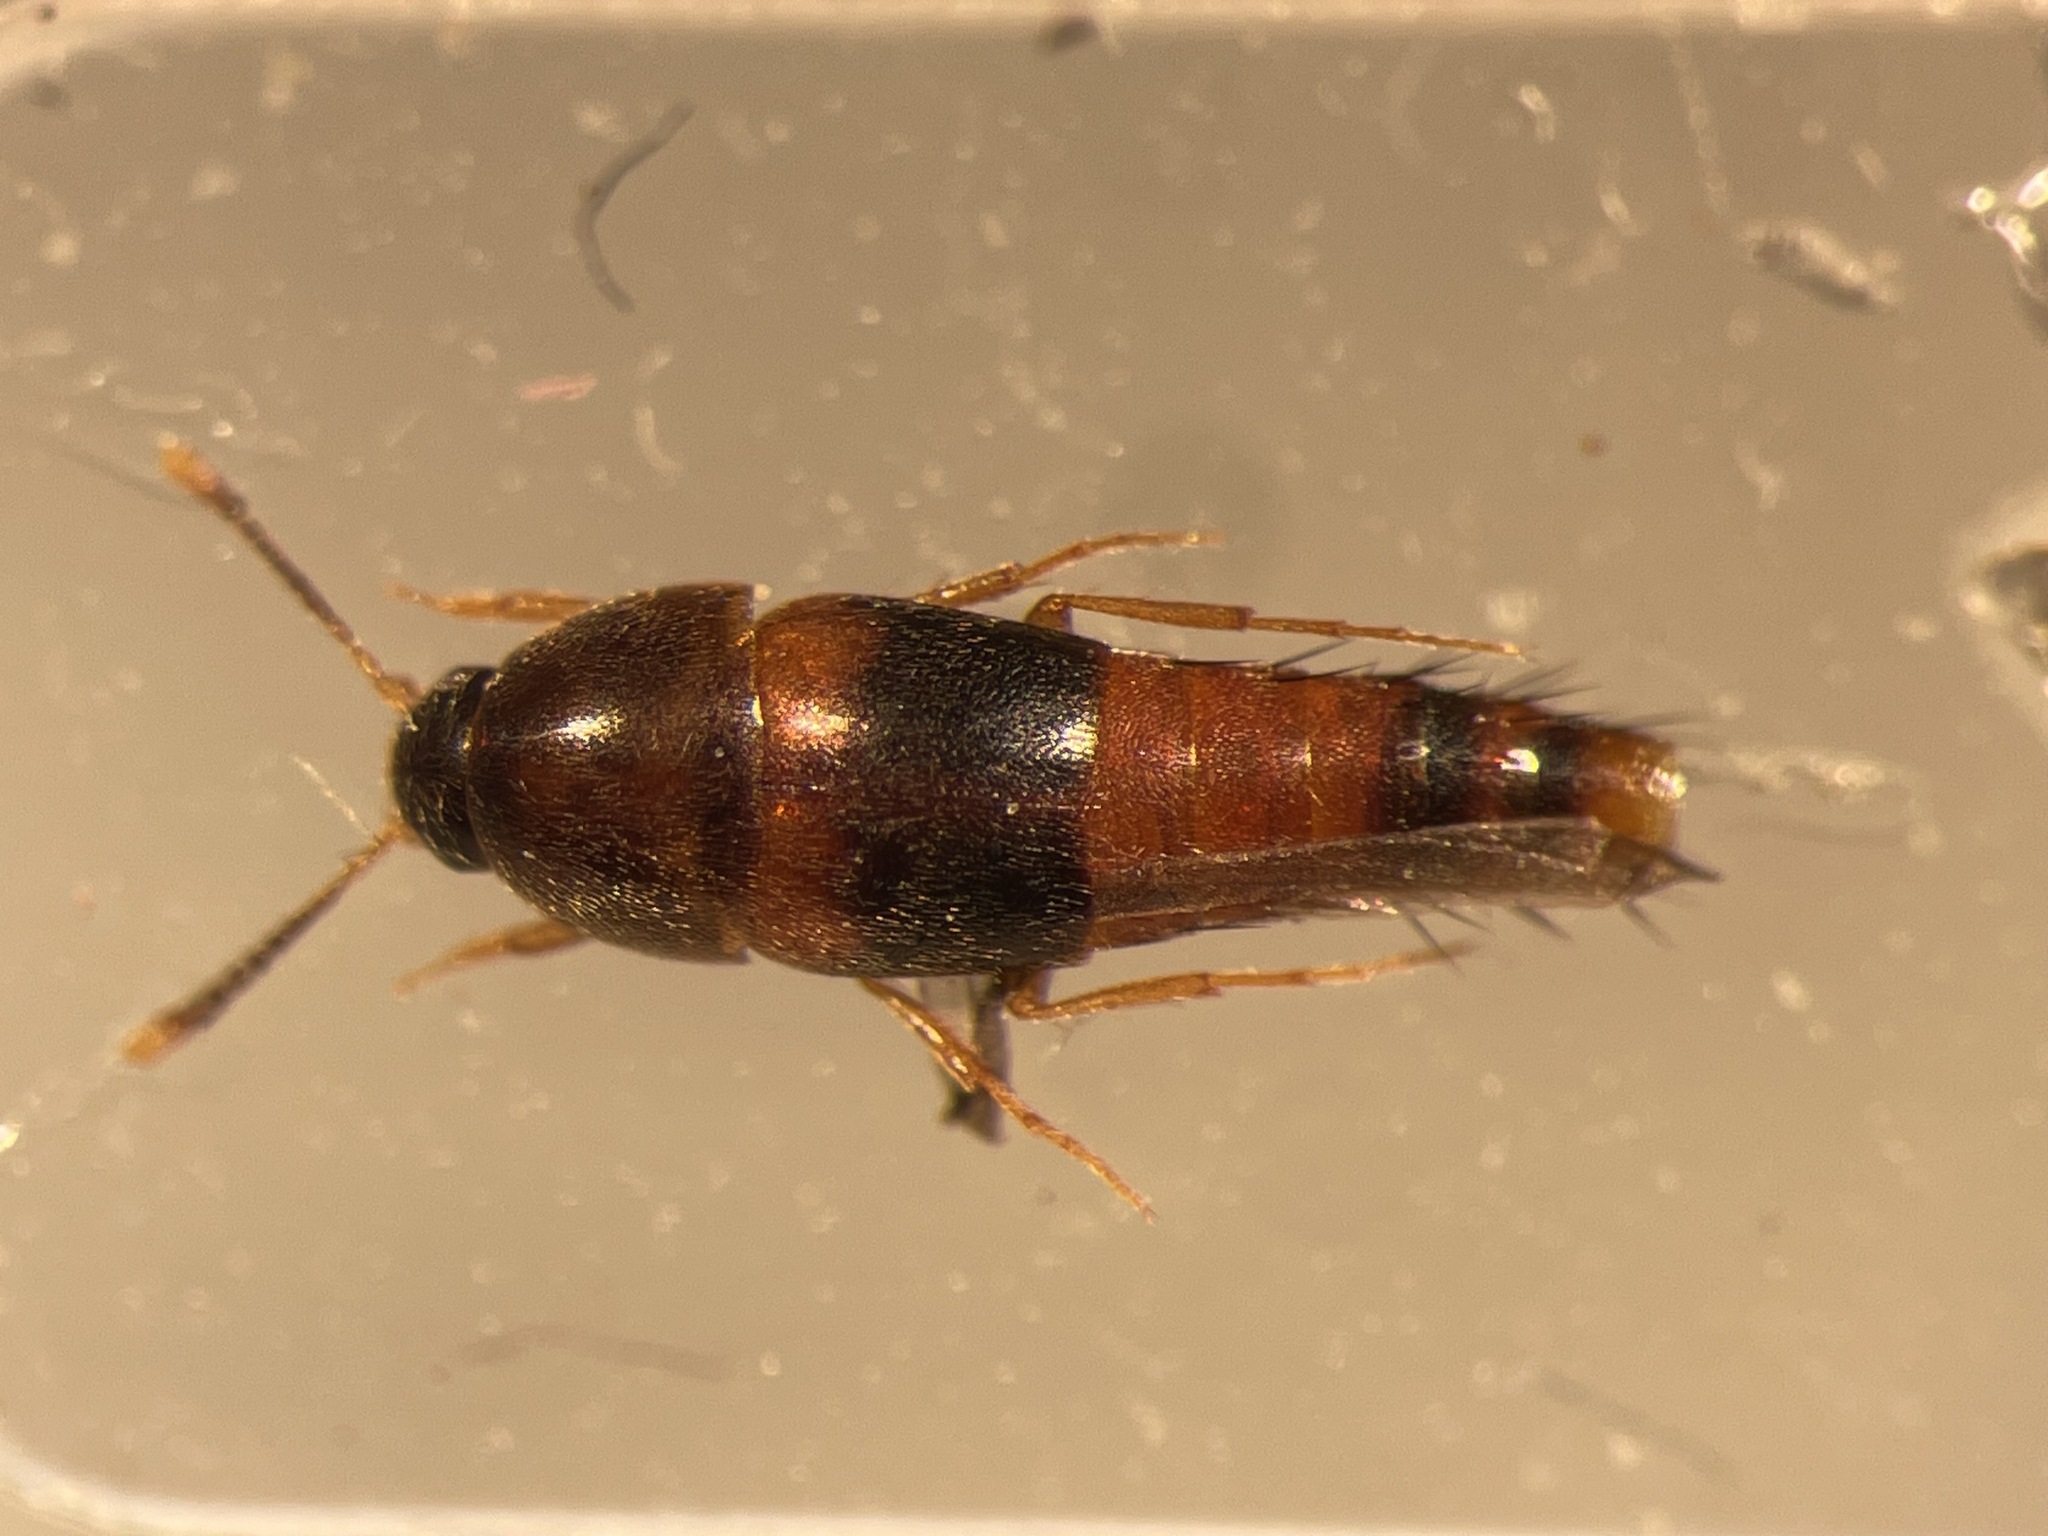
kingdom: Animalia
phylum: Arthropoda
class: Insecta
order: Coleoptera
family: Staphylinidae
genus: Sepedophilus
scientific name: Sepedophilus opicus
